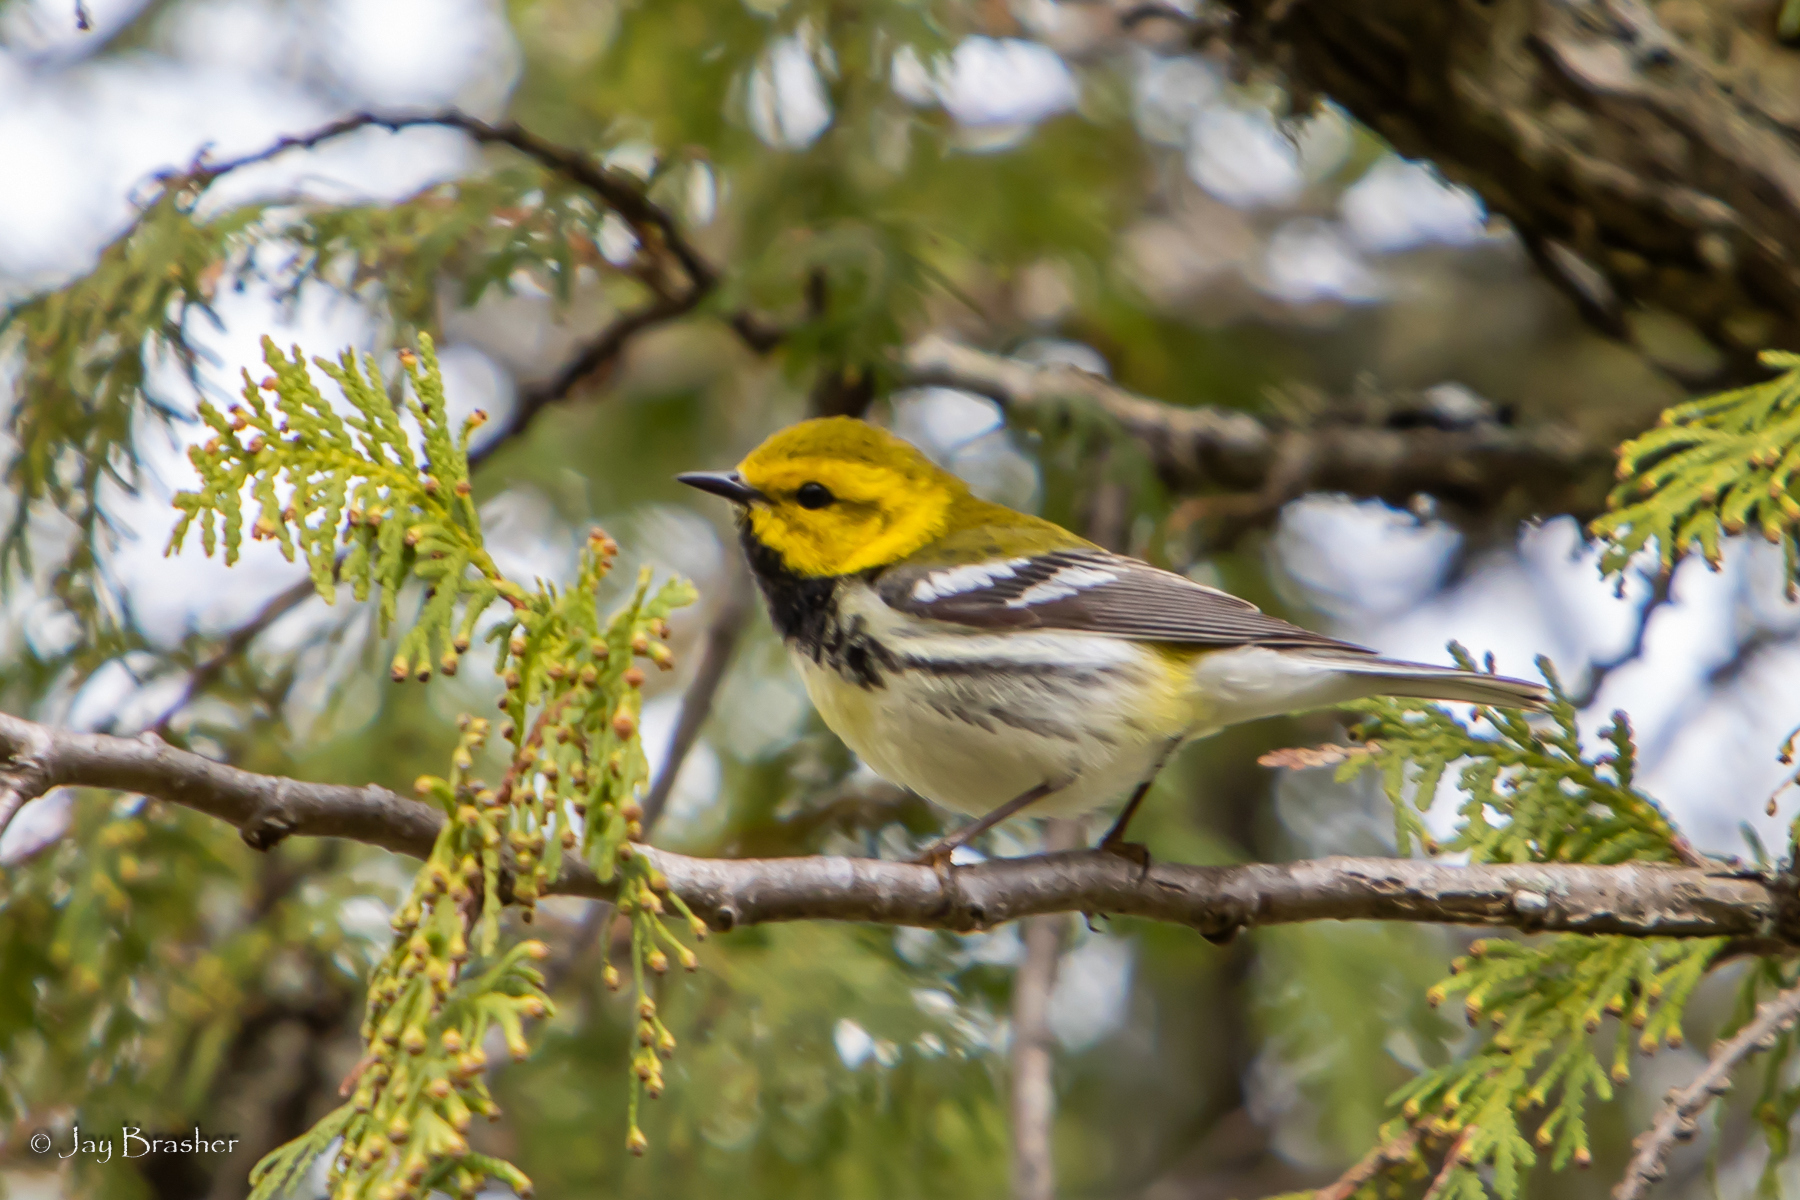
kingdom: Animalia
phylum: Chordata
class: Aves
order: Passeriformes
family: Parulidae
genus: Setophaga
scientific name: Setophaga virens
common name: Black-throated green warbler
